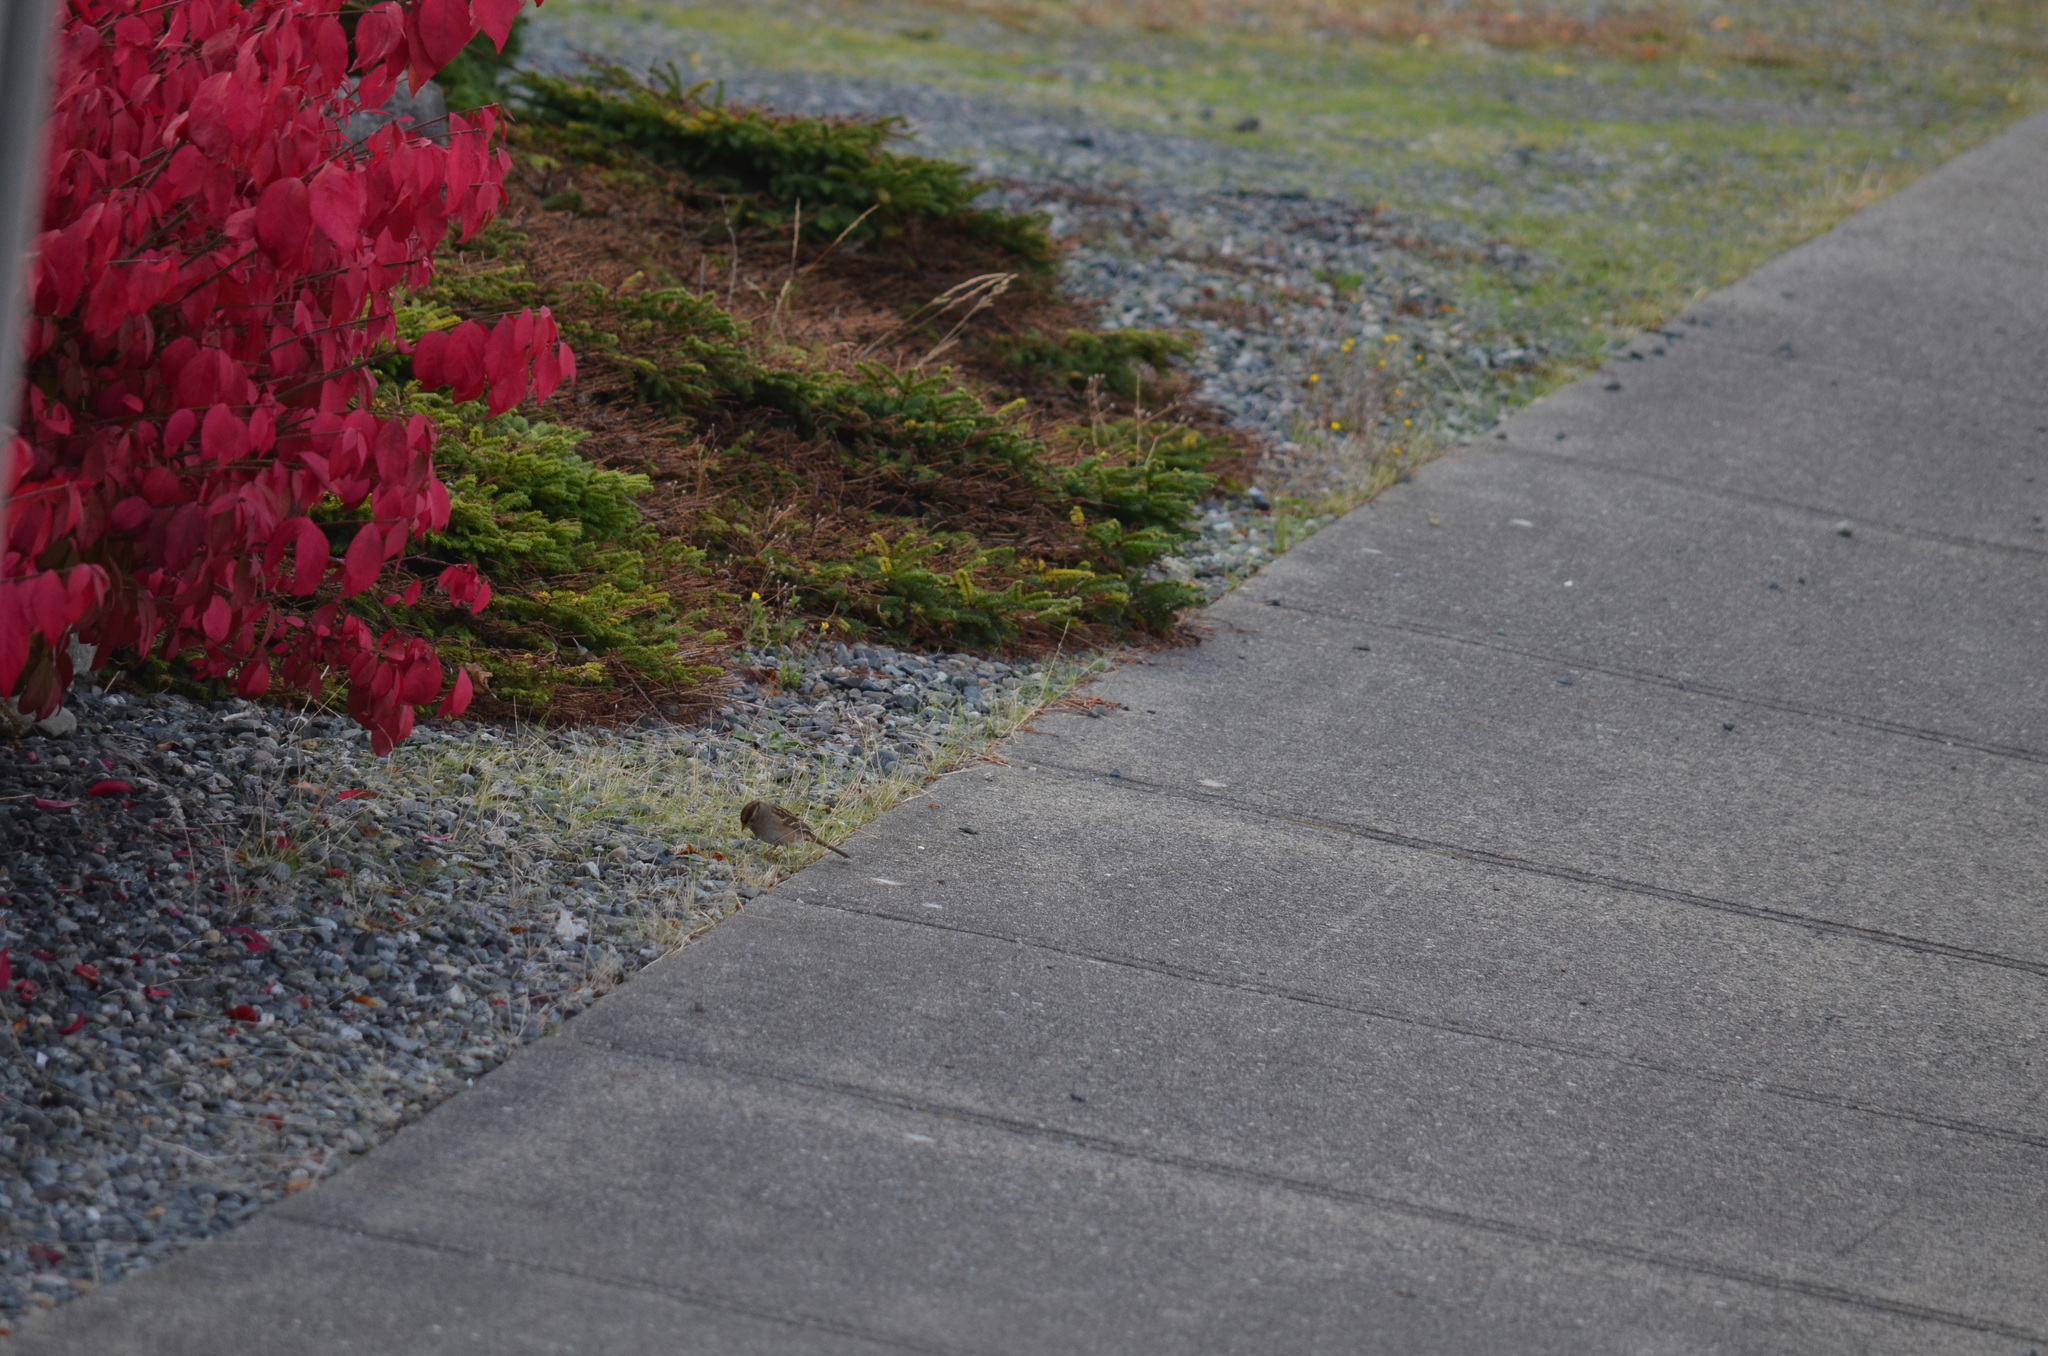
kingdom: Animalia
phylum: Chordata
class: Aves
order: Passeriformes
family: Passerellidae
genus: Zonotrichia
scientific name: Zonotrichia leucophrys
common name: White-crowned sparrow
